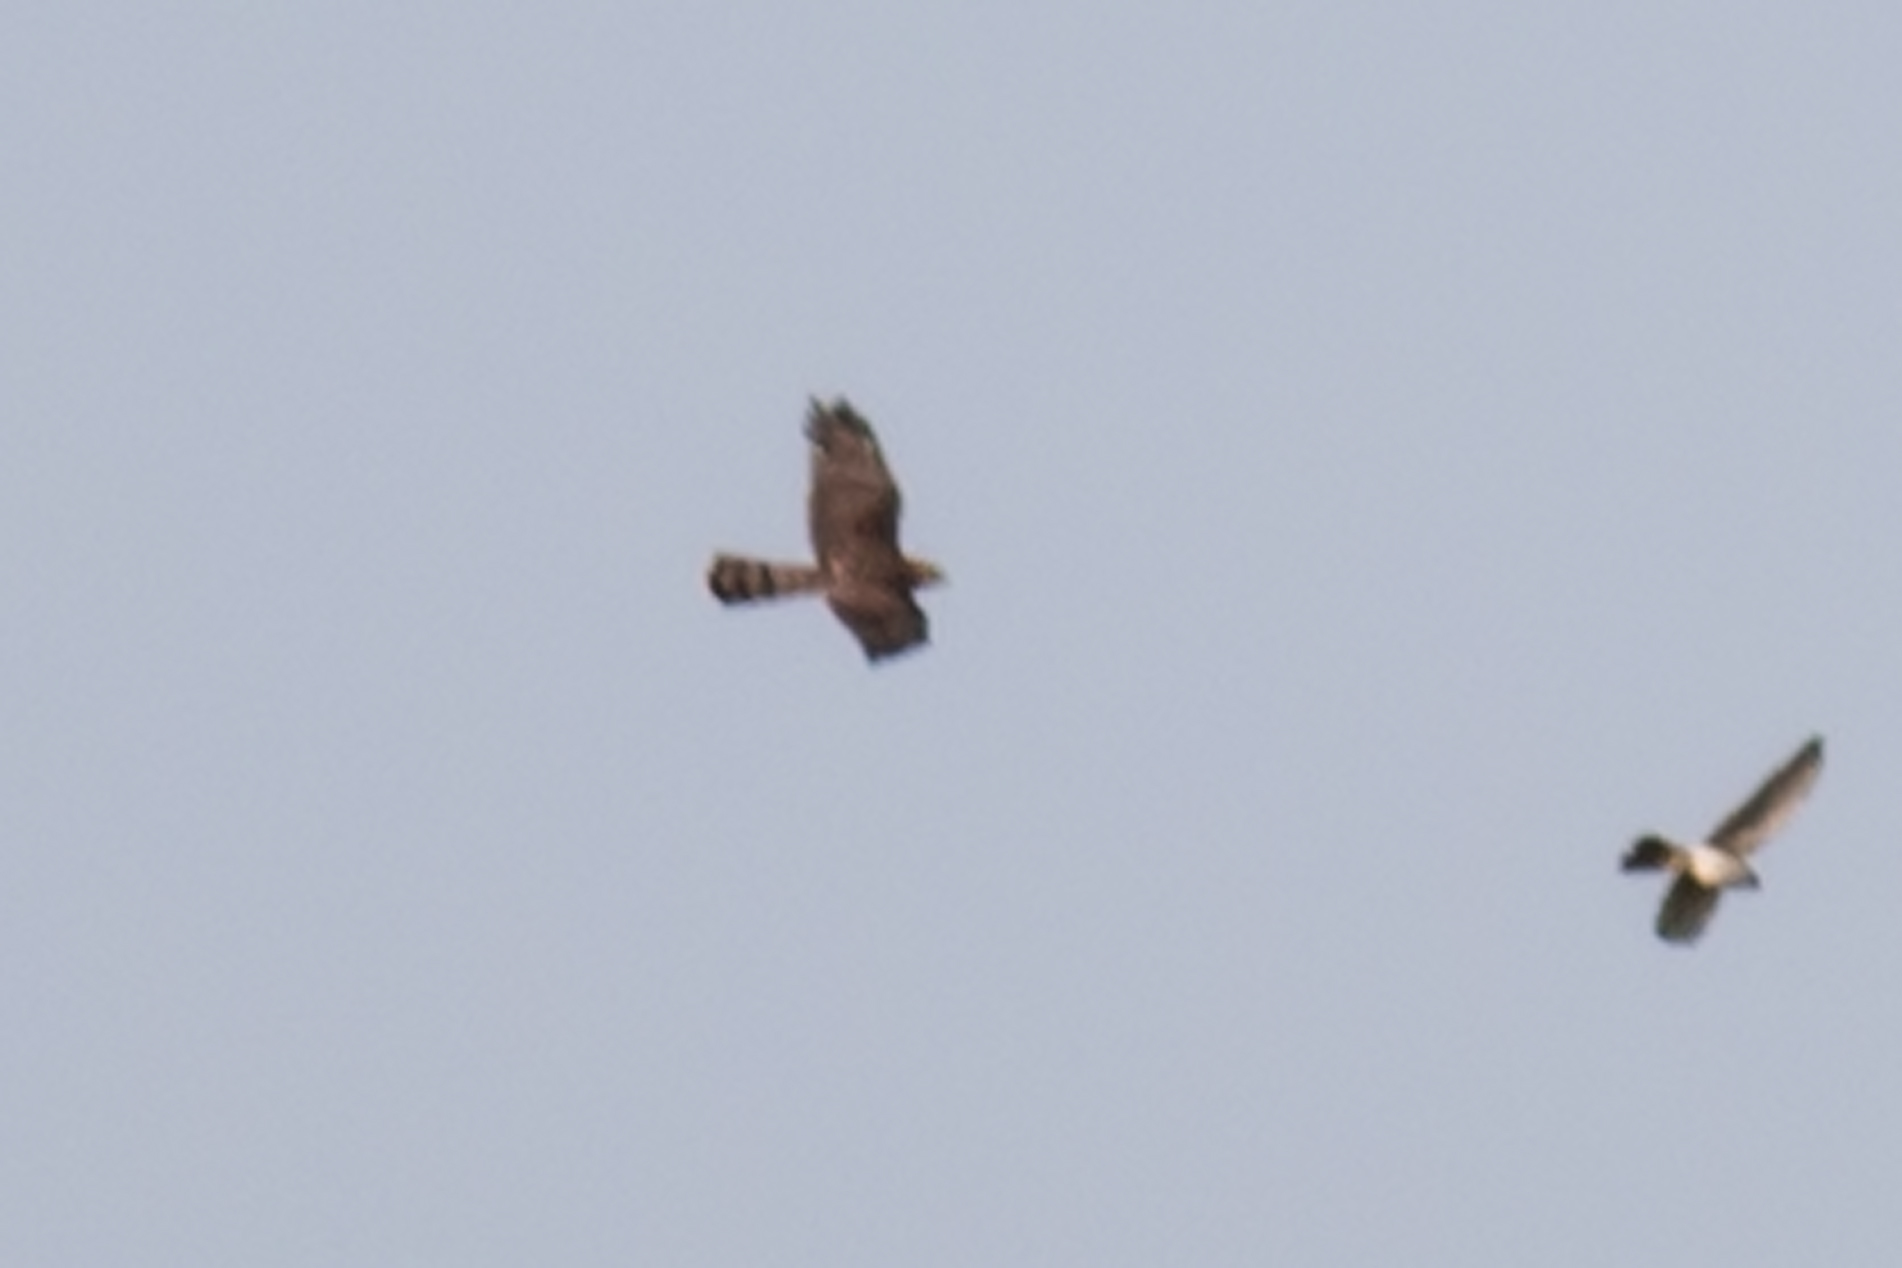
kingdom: Animalia
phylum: Chordata
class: Aves
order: Accipitriformes
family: Accipitridae
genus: Accipiter
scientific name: Accipiter cooperii
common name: Cooper's hawk
